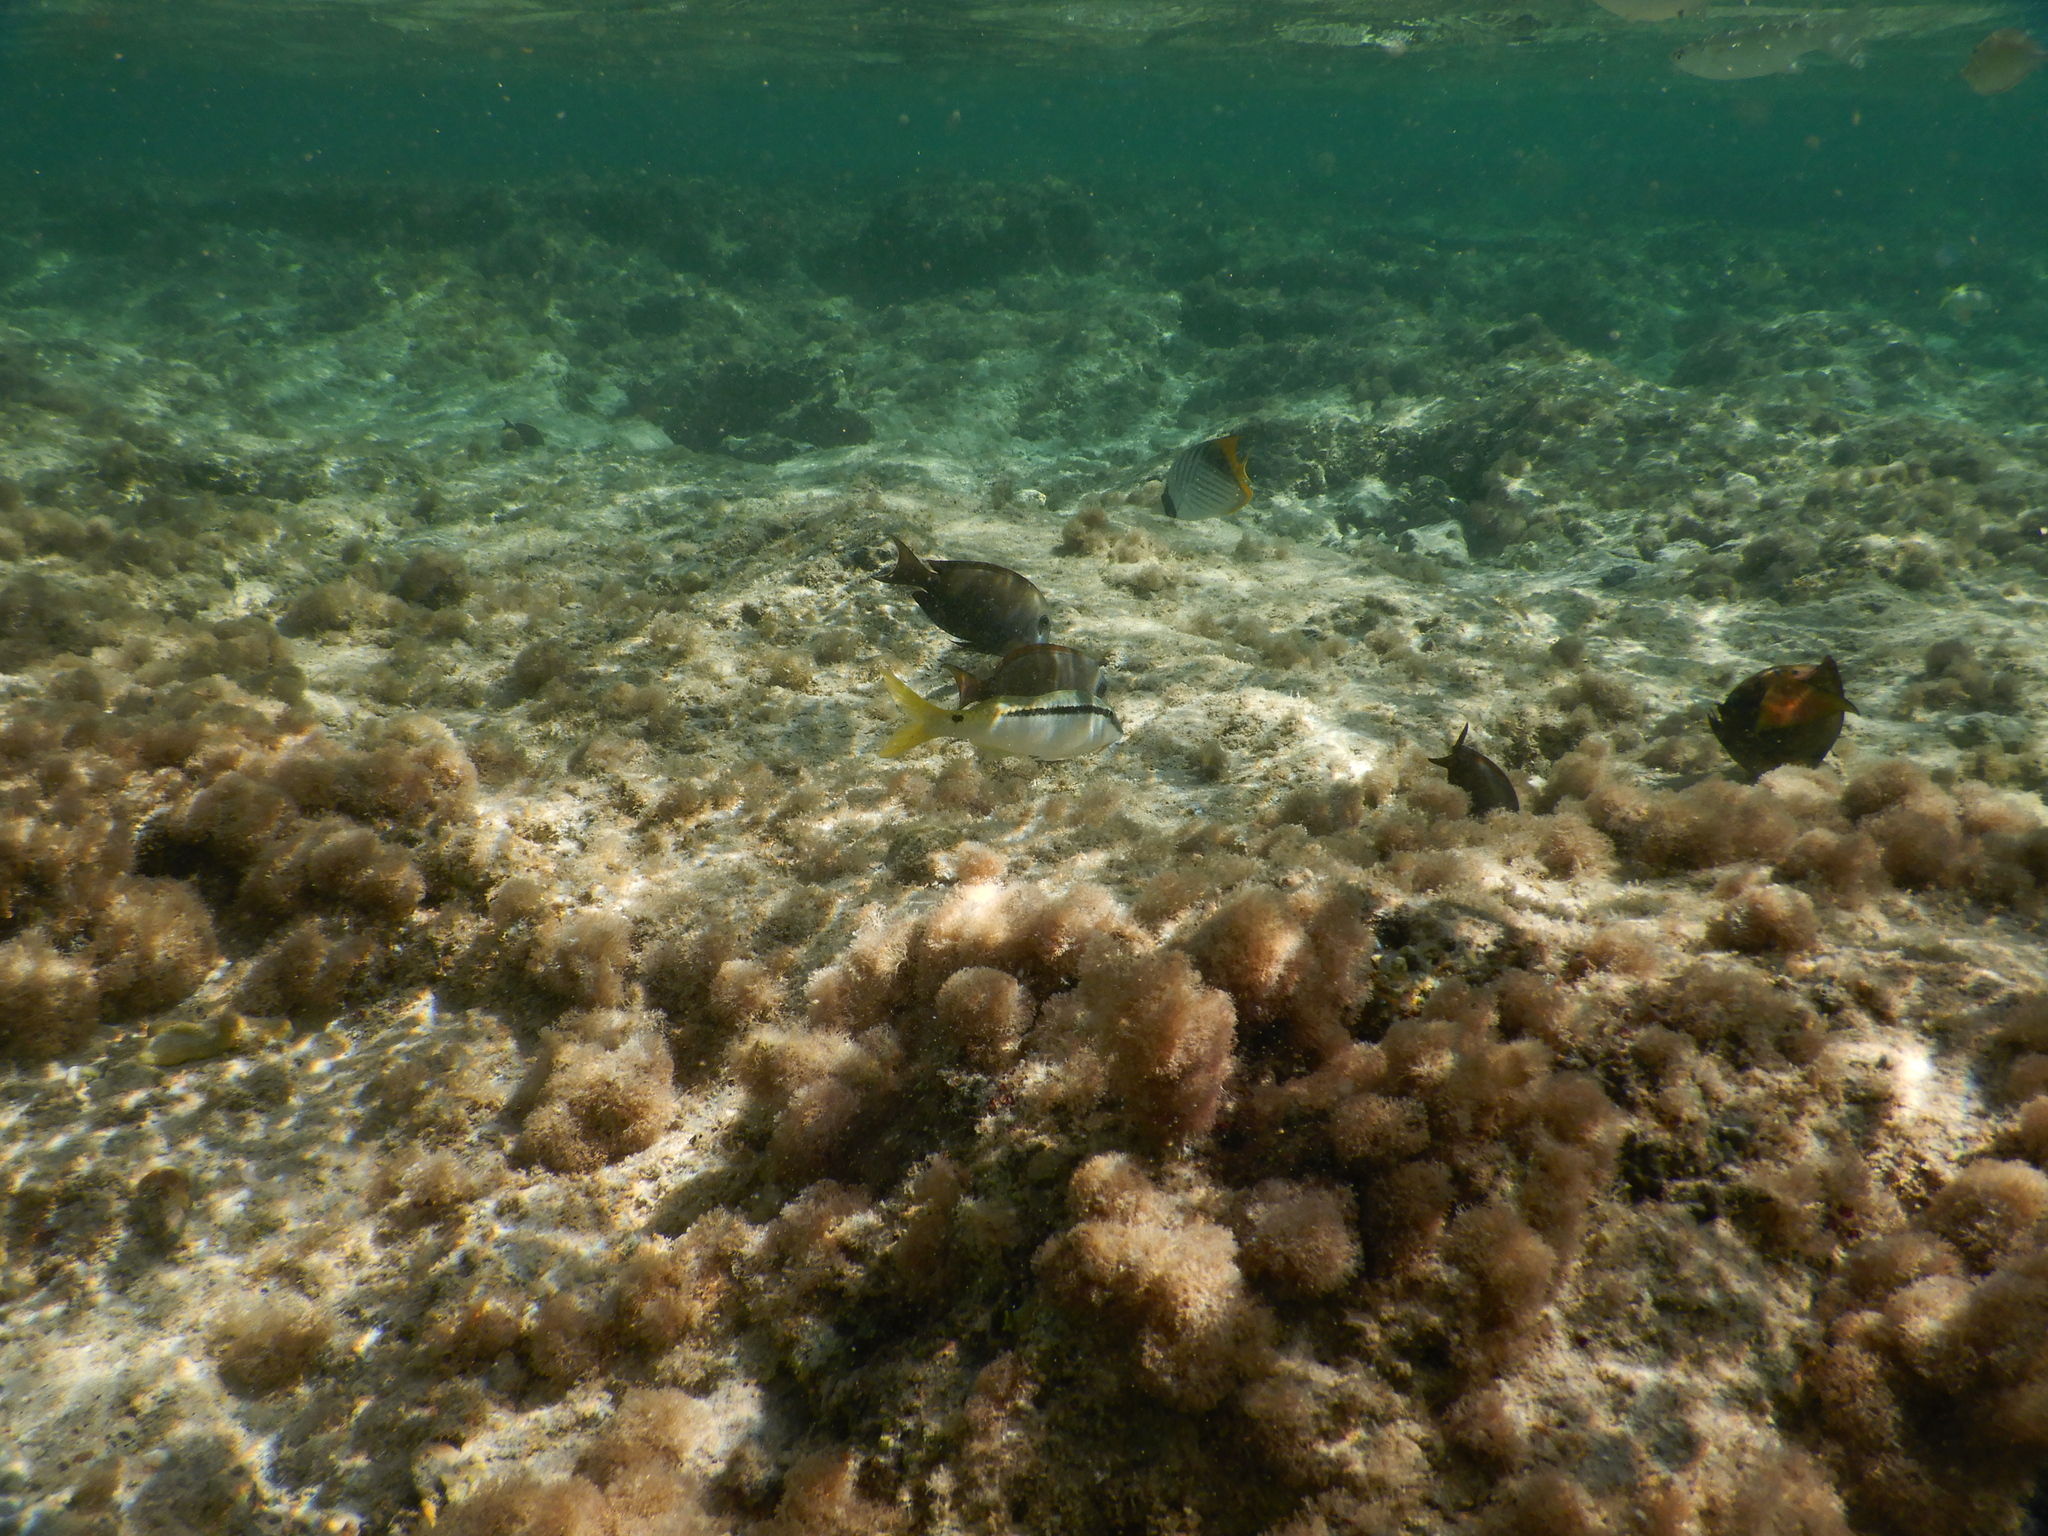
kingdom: Animalia
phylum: Chordata
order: Perciformes
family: Mullidae
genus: Parupeneus
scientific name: Parupeneus forsskali
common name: Red sea goatfish
